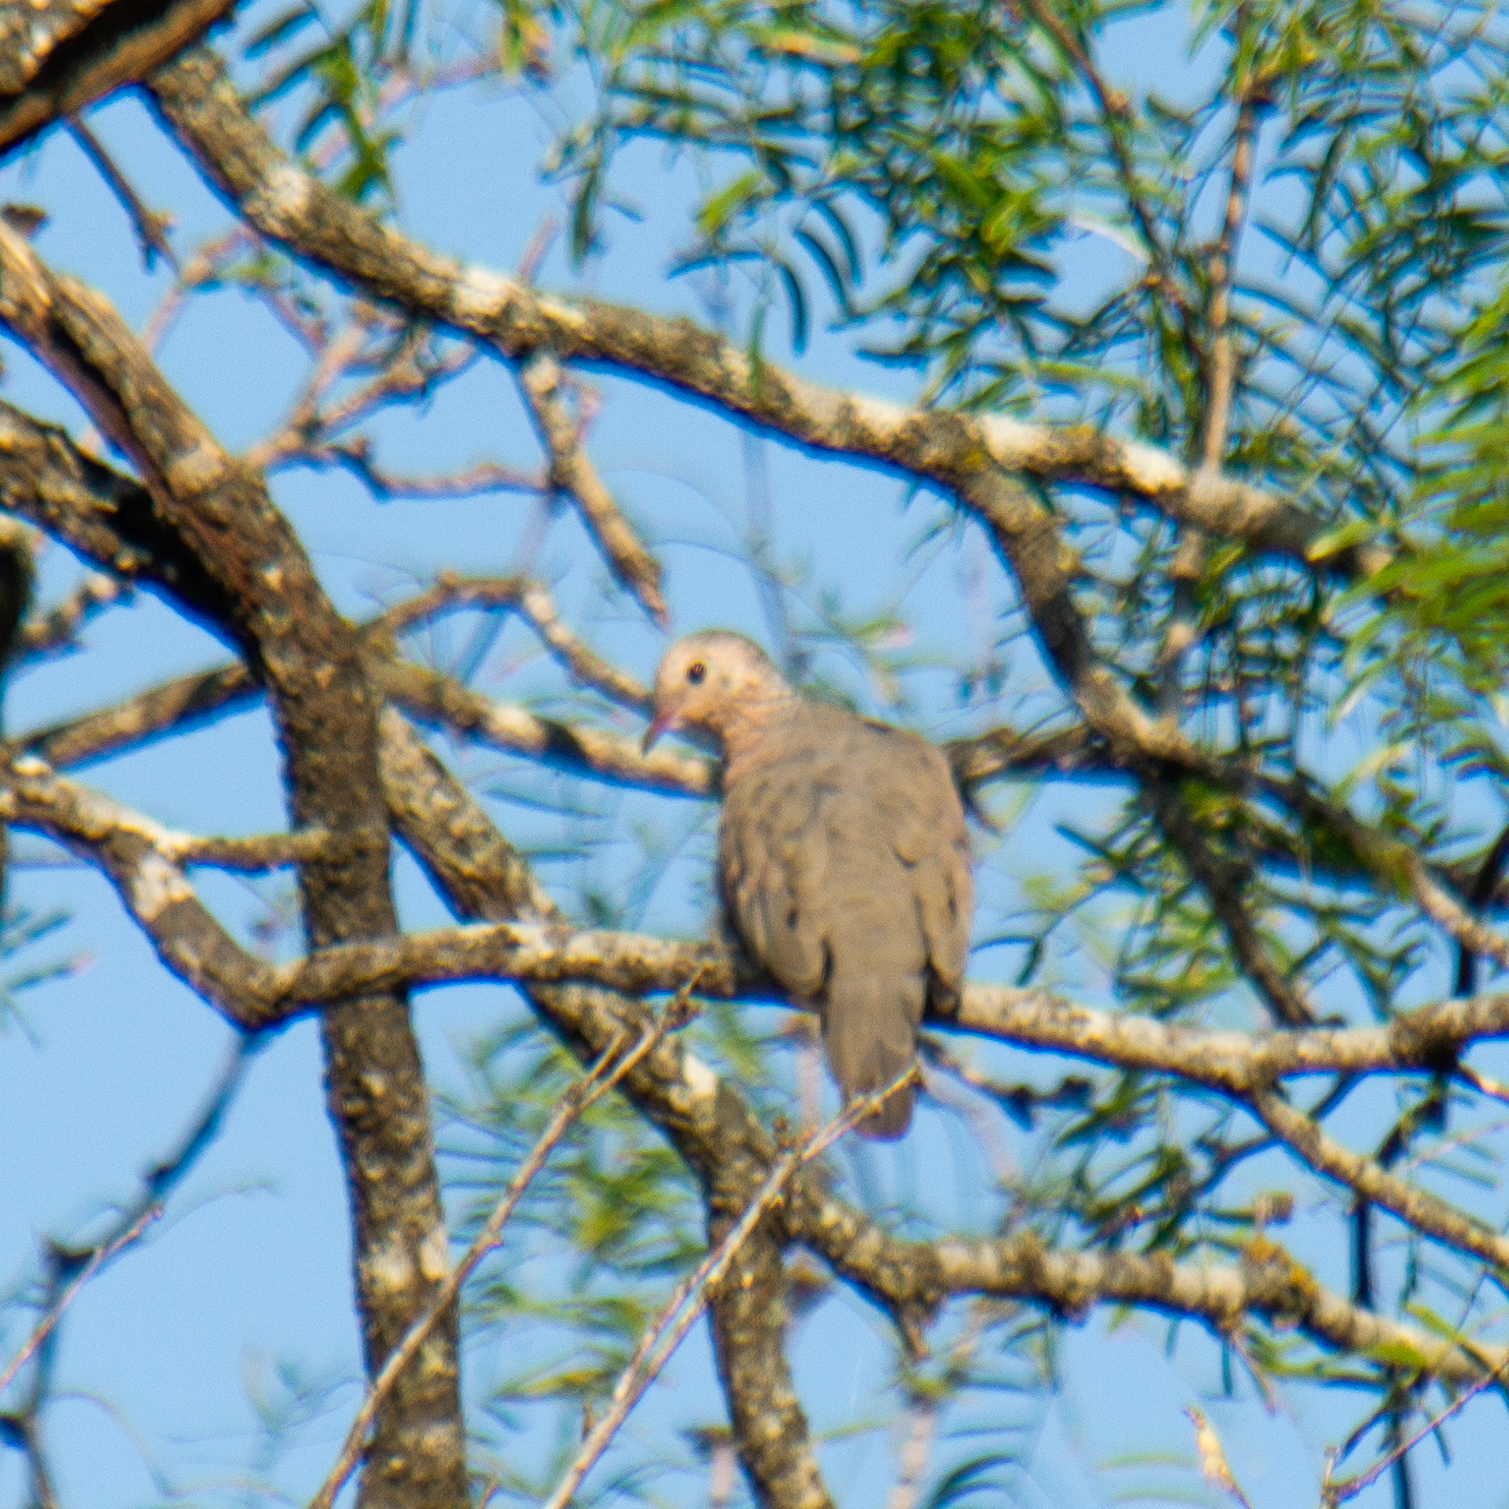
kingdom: Animalia
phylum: Chordata
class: Aves
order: Columbiformes
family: Columbidae
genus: Columbina
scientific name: Columbina passerina
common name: Common ground-dove
